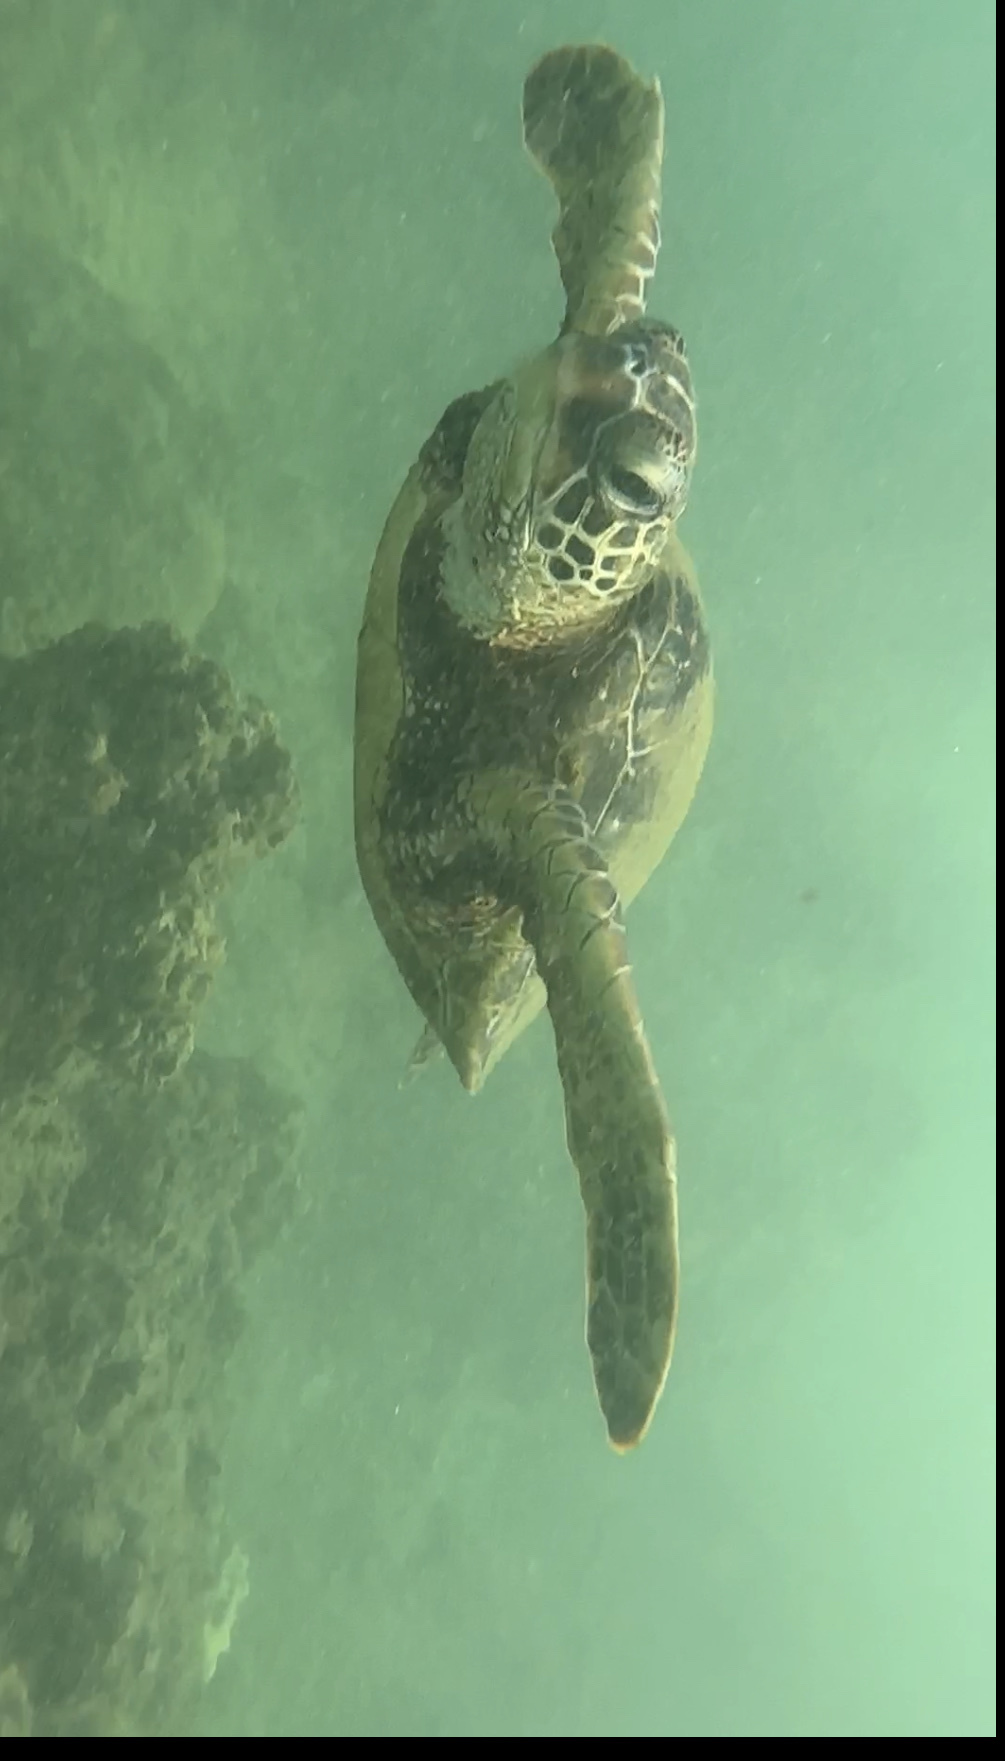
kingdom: Animalia
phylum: Chordata
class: Testudines
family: Cheloniidae
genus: Chelonia
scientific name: Chelonia mydas
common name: Green turtle
